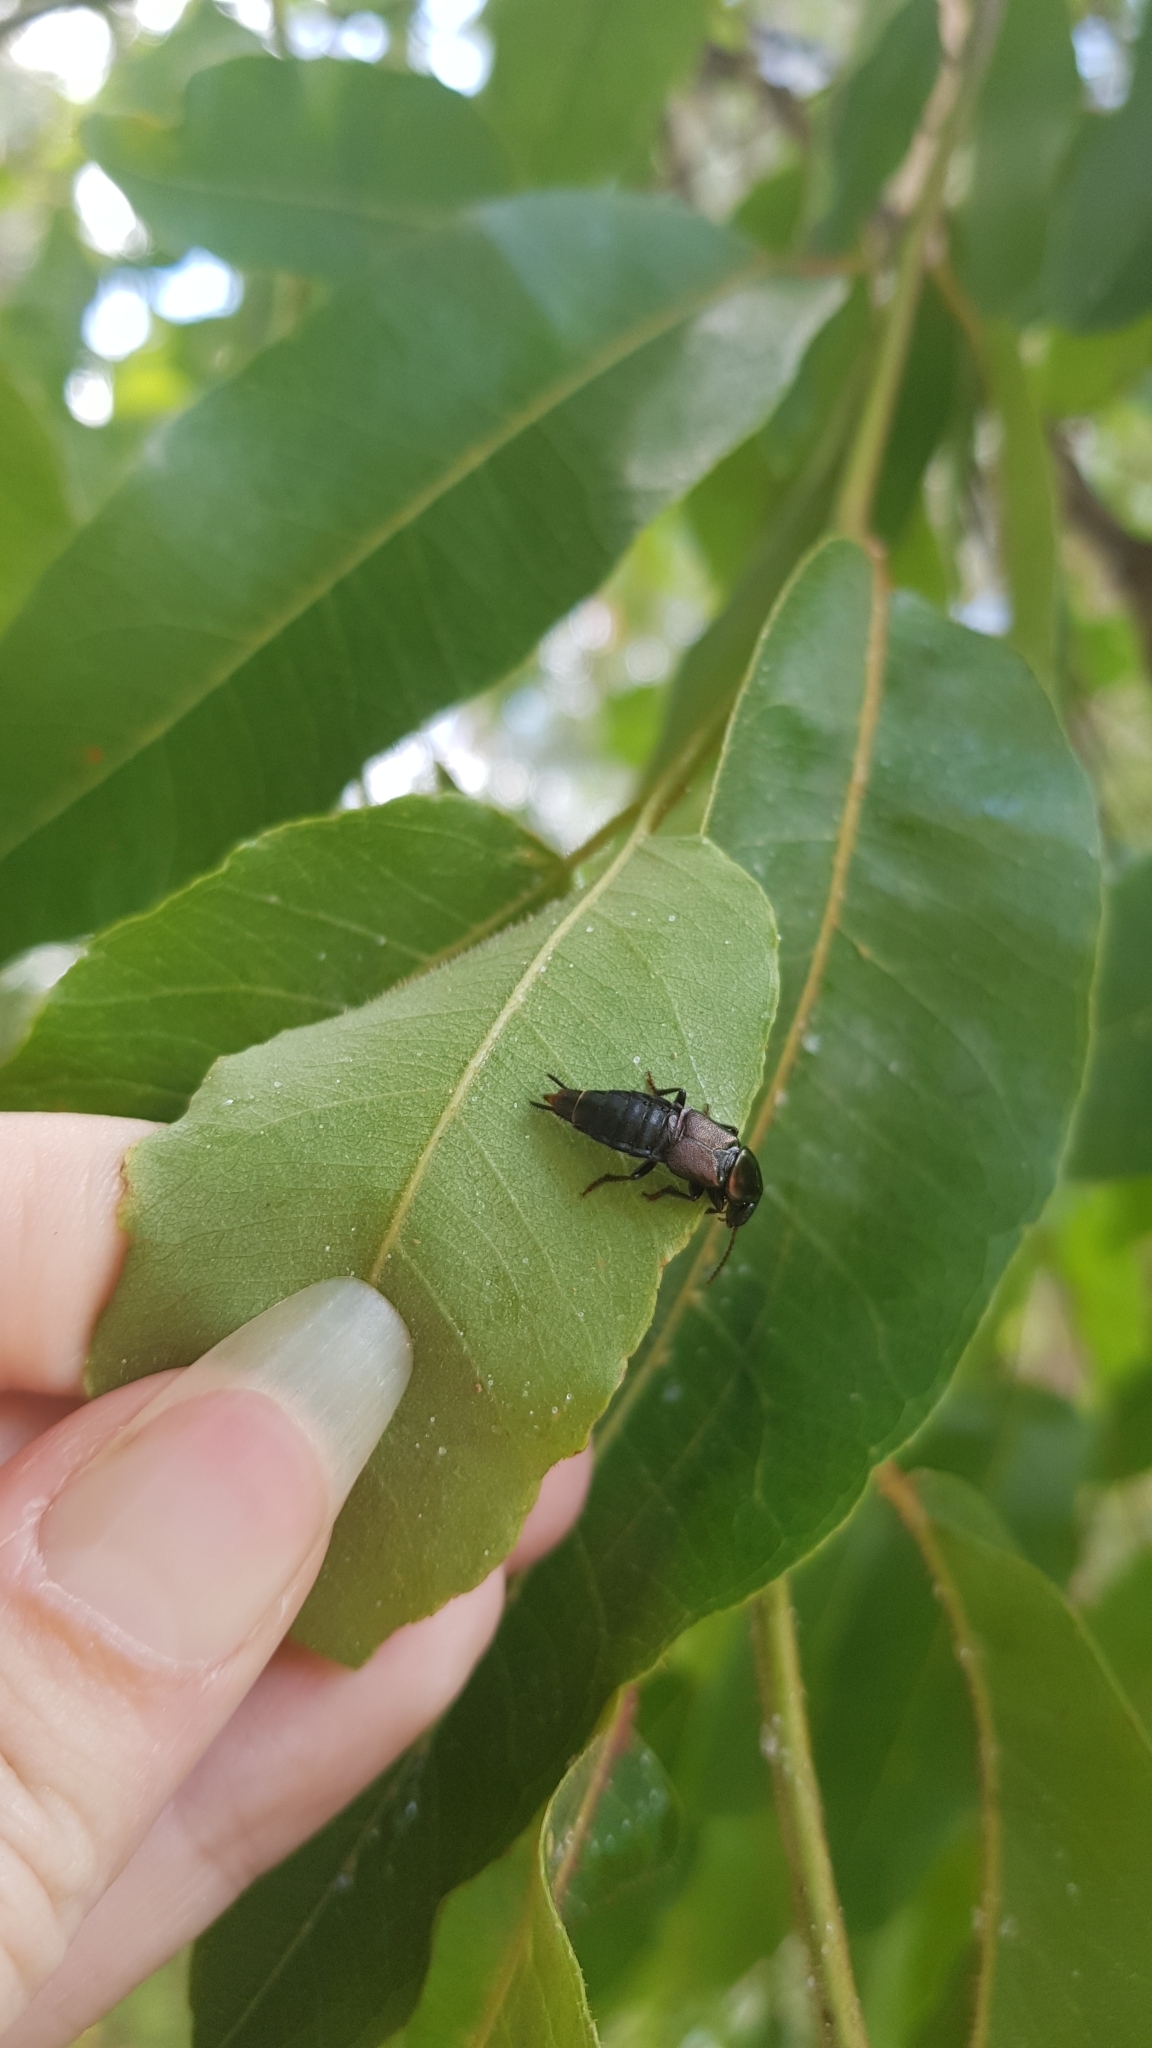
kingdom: Animalia
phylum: Arthropoda
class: Insecta
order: Coleoptera
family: Staphylinidae
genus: Antimerus
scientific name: Antimerus punctipennis
